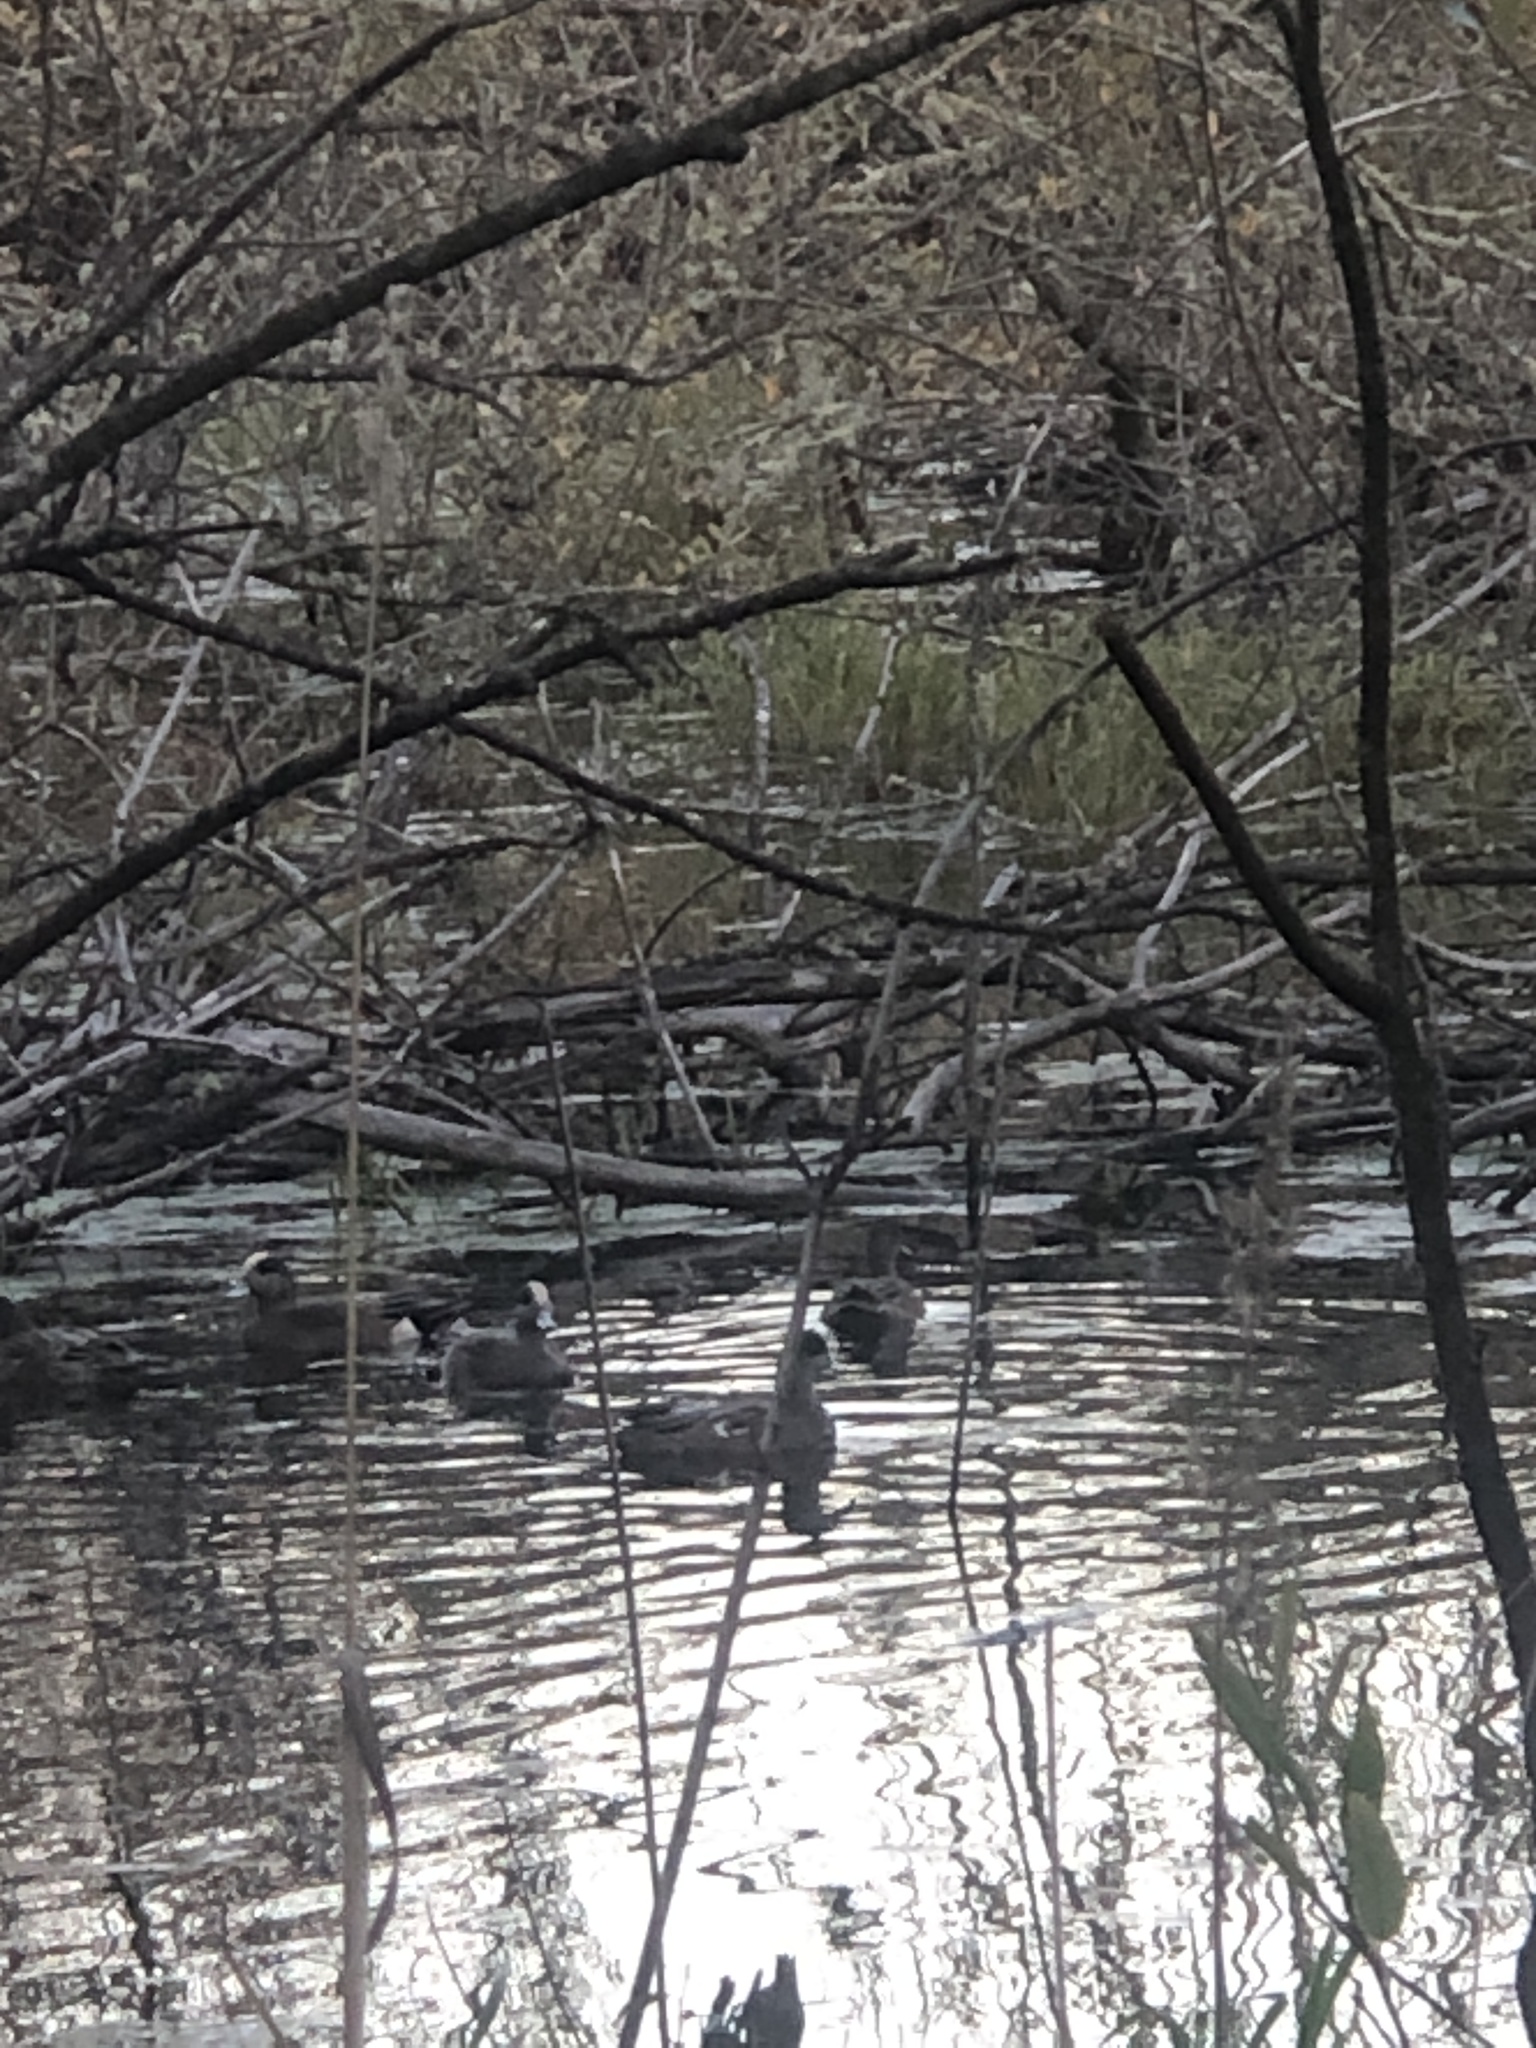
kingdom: Animalia
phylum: Chordata
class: Aves
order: Anseriformes
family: Anatidae
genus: Mareca
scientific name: Mareca americana
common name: American wigeon
